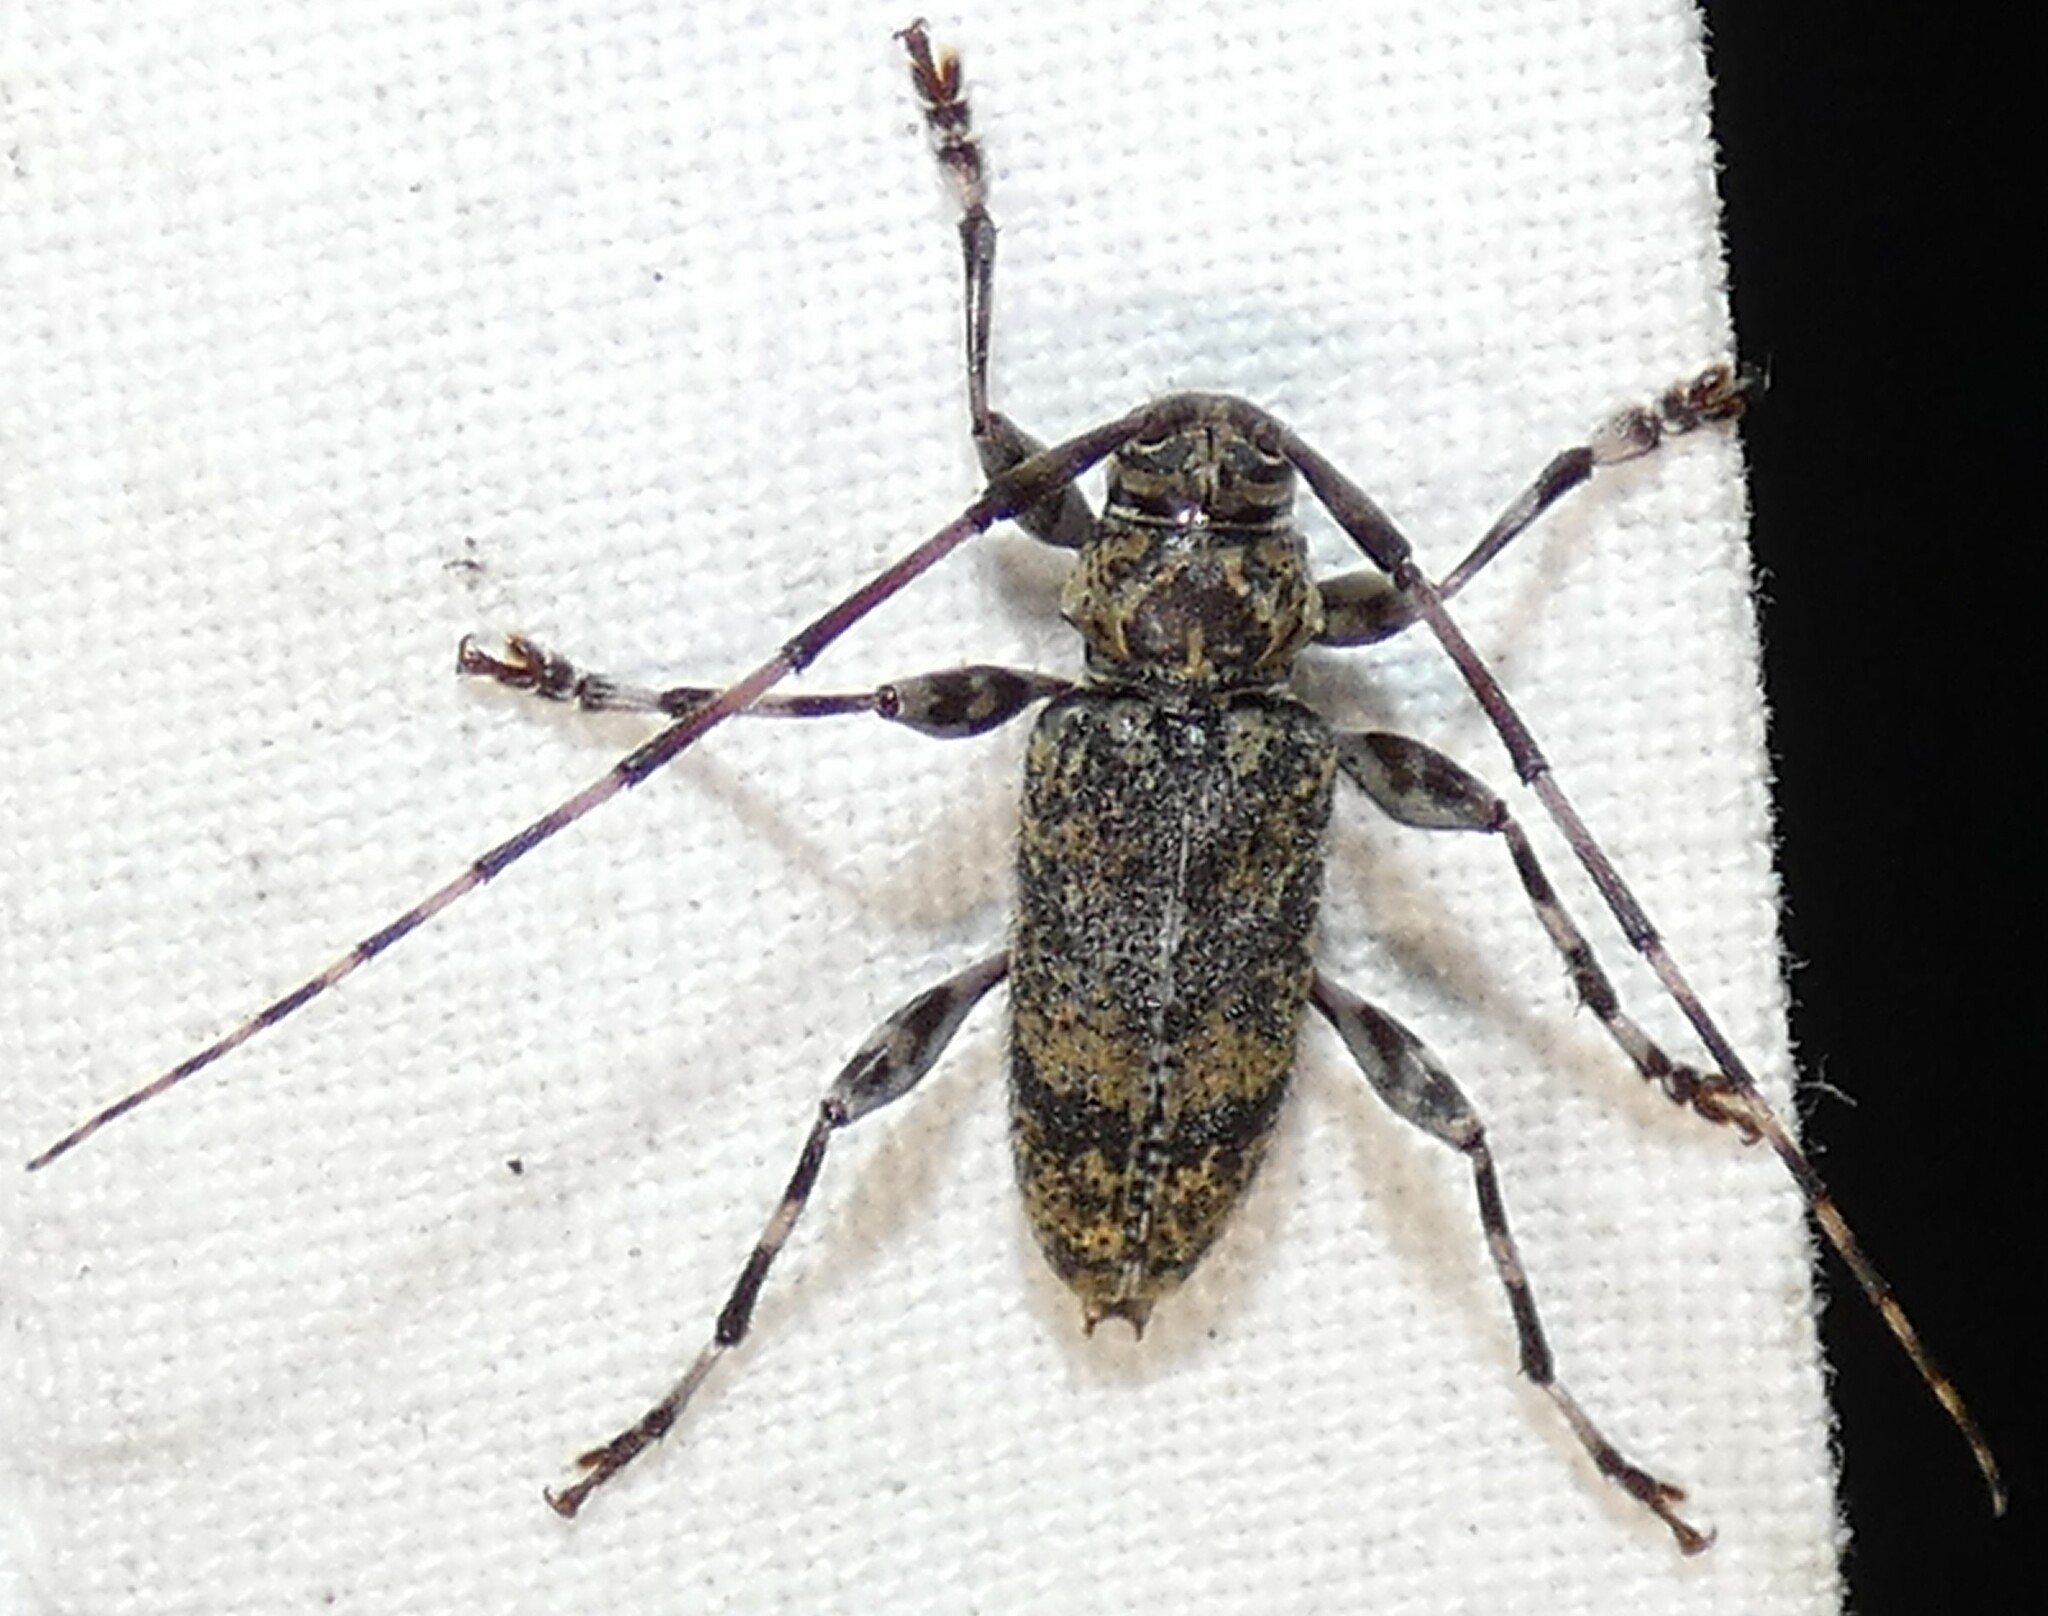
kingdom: Animalia
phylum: Arthropoda
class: Insecta
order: Coleoptera
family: Cerambycidae
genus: Graphisurus
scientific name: Graphisurus fasciatus
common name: Banded graphisurus
